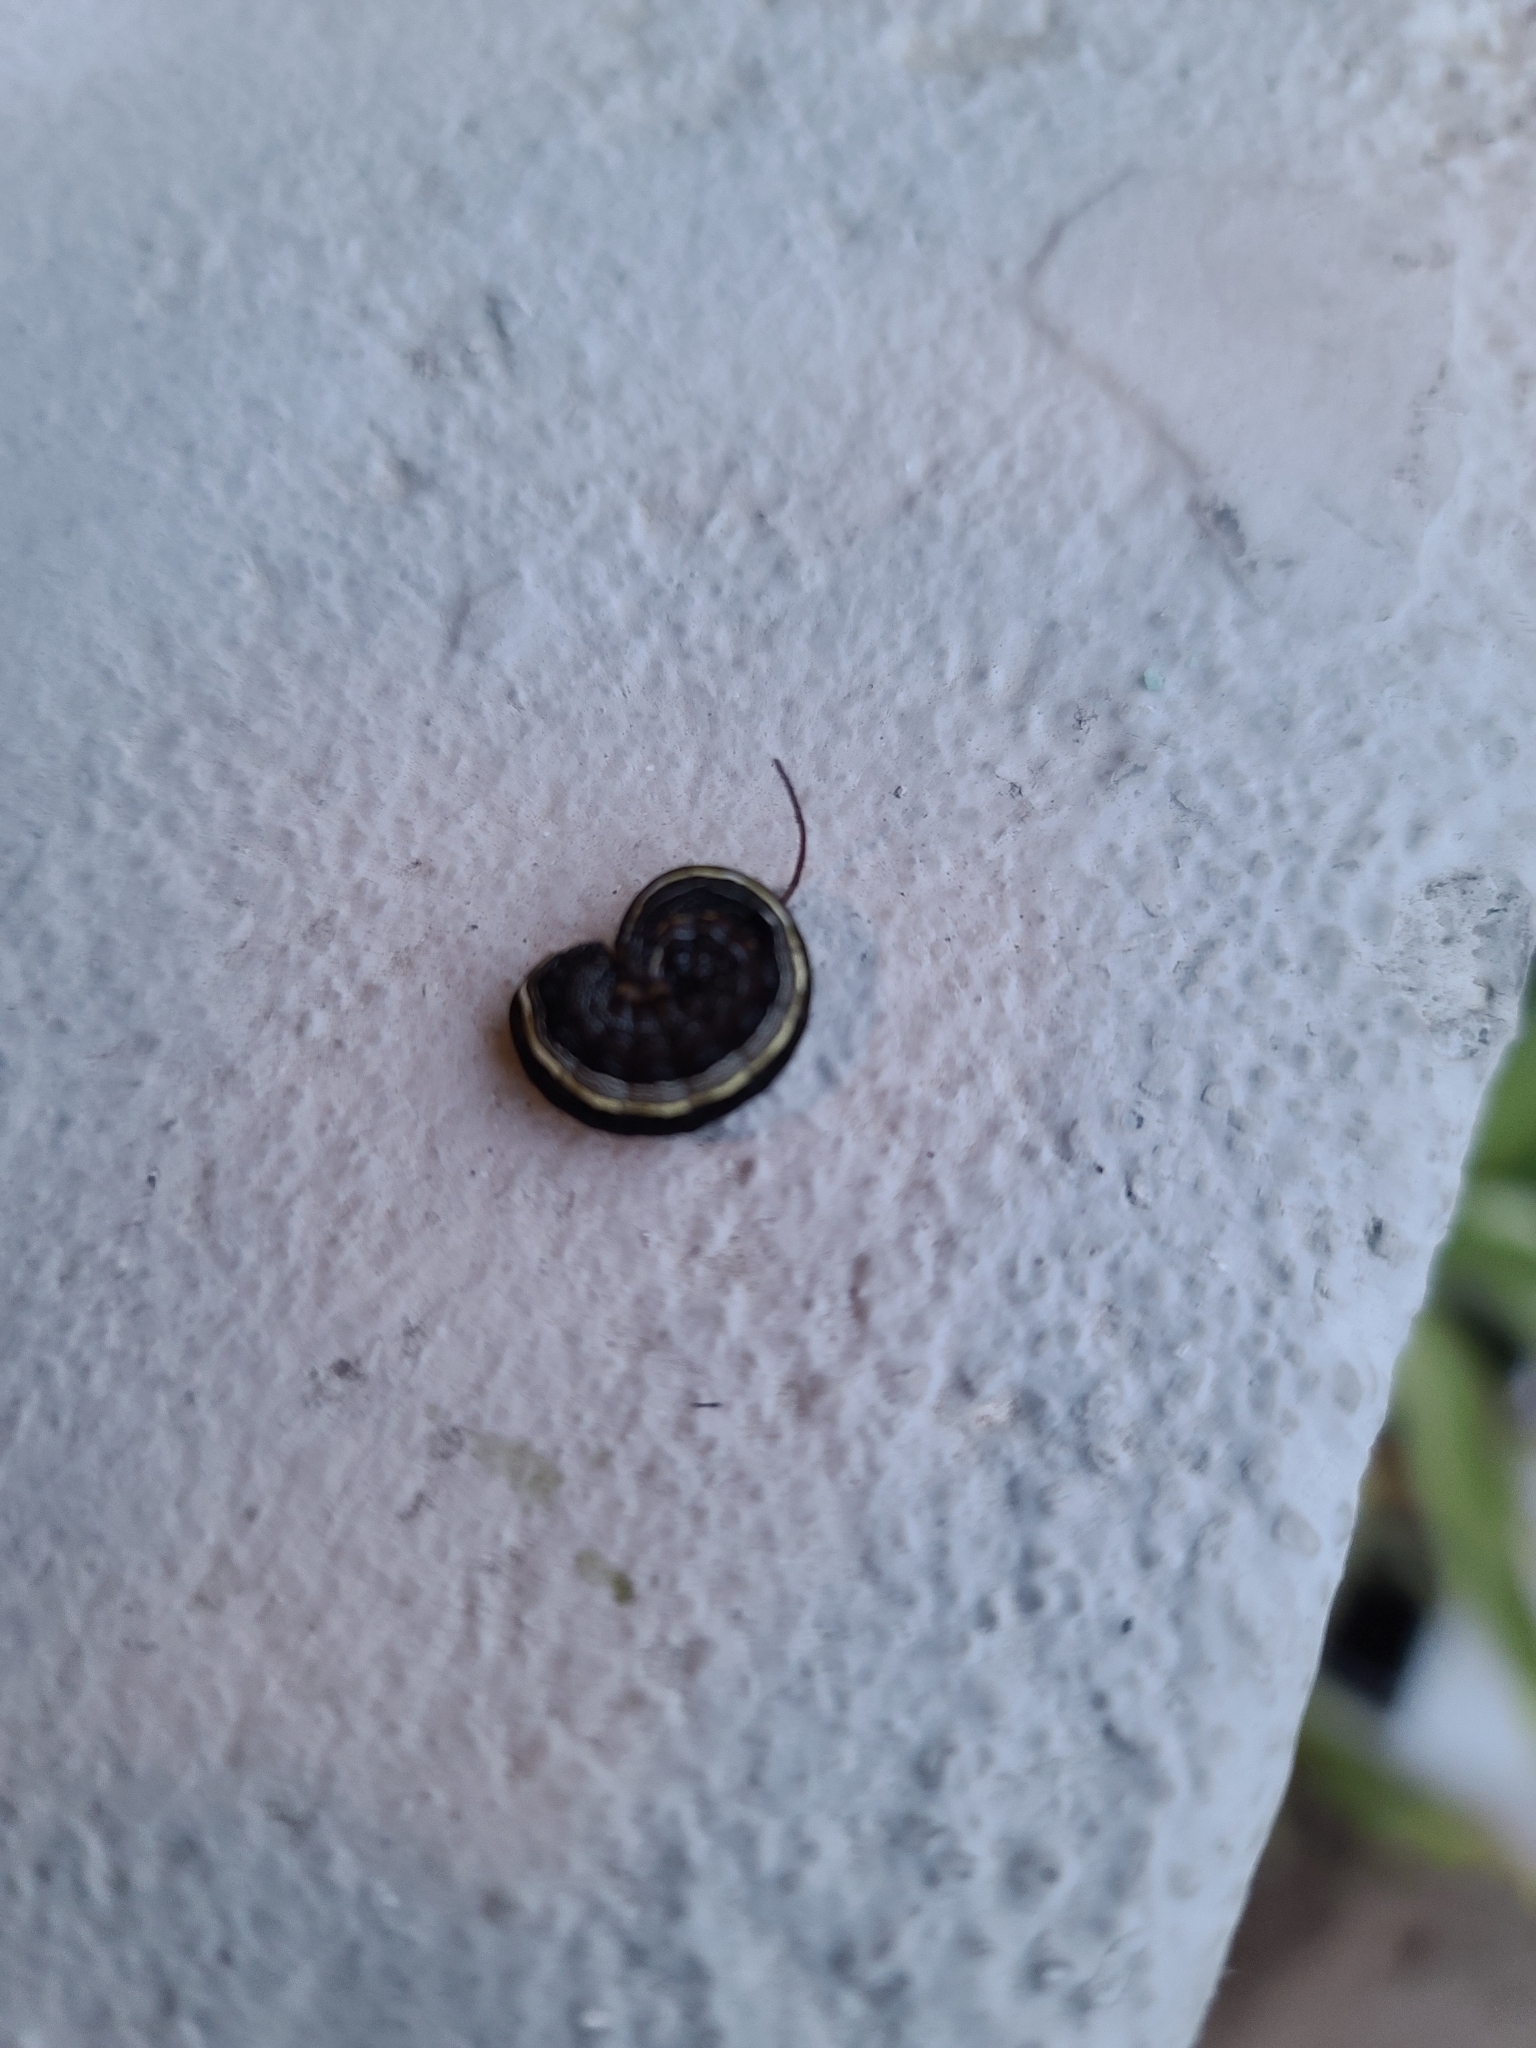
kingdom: Animalia
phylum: Arthropoda
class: Insecta
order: Lepidoptera
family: Noctuidae
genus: Spodoptera
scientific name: Spodoptera ornithogalli
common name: Yellow-striped armyworm
